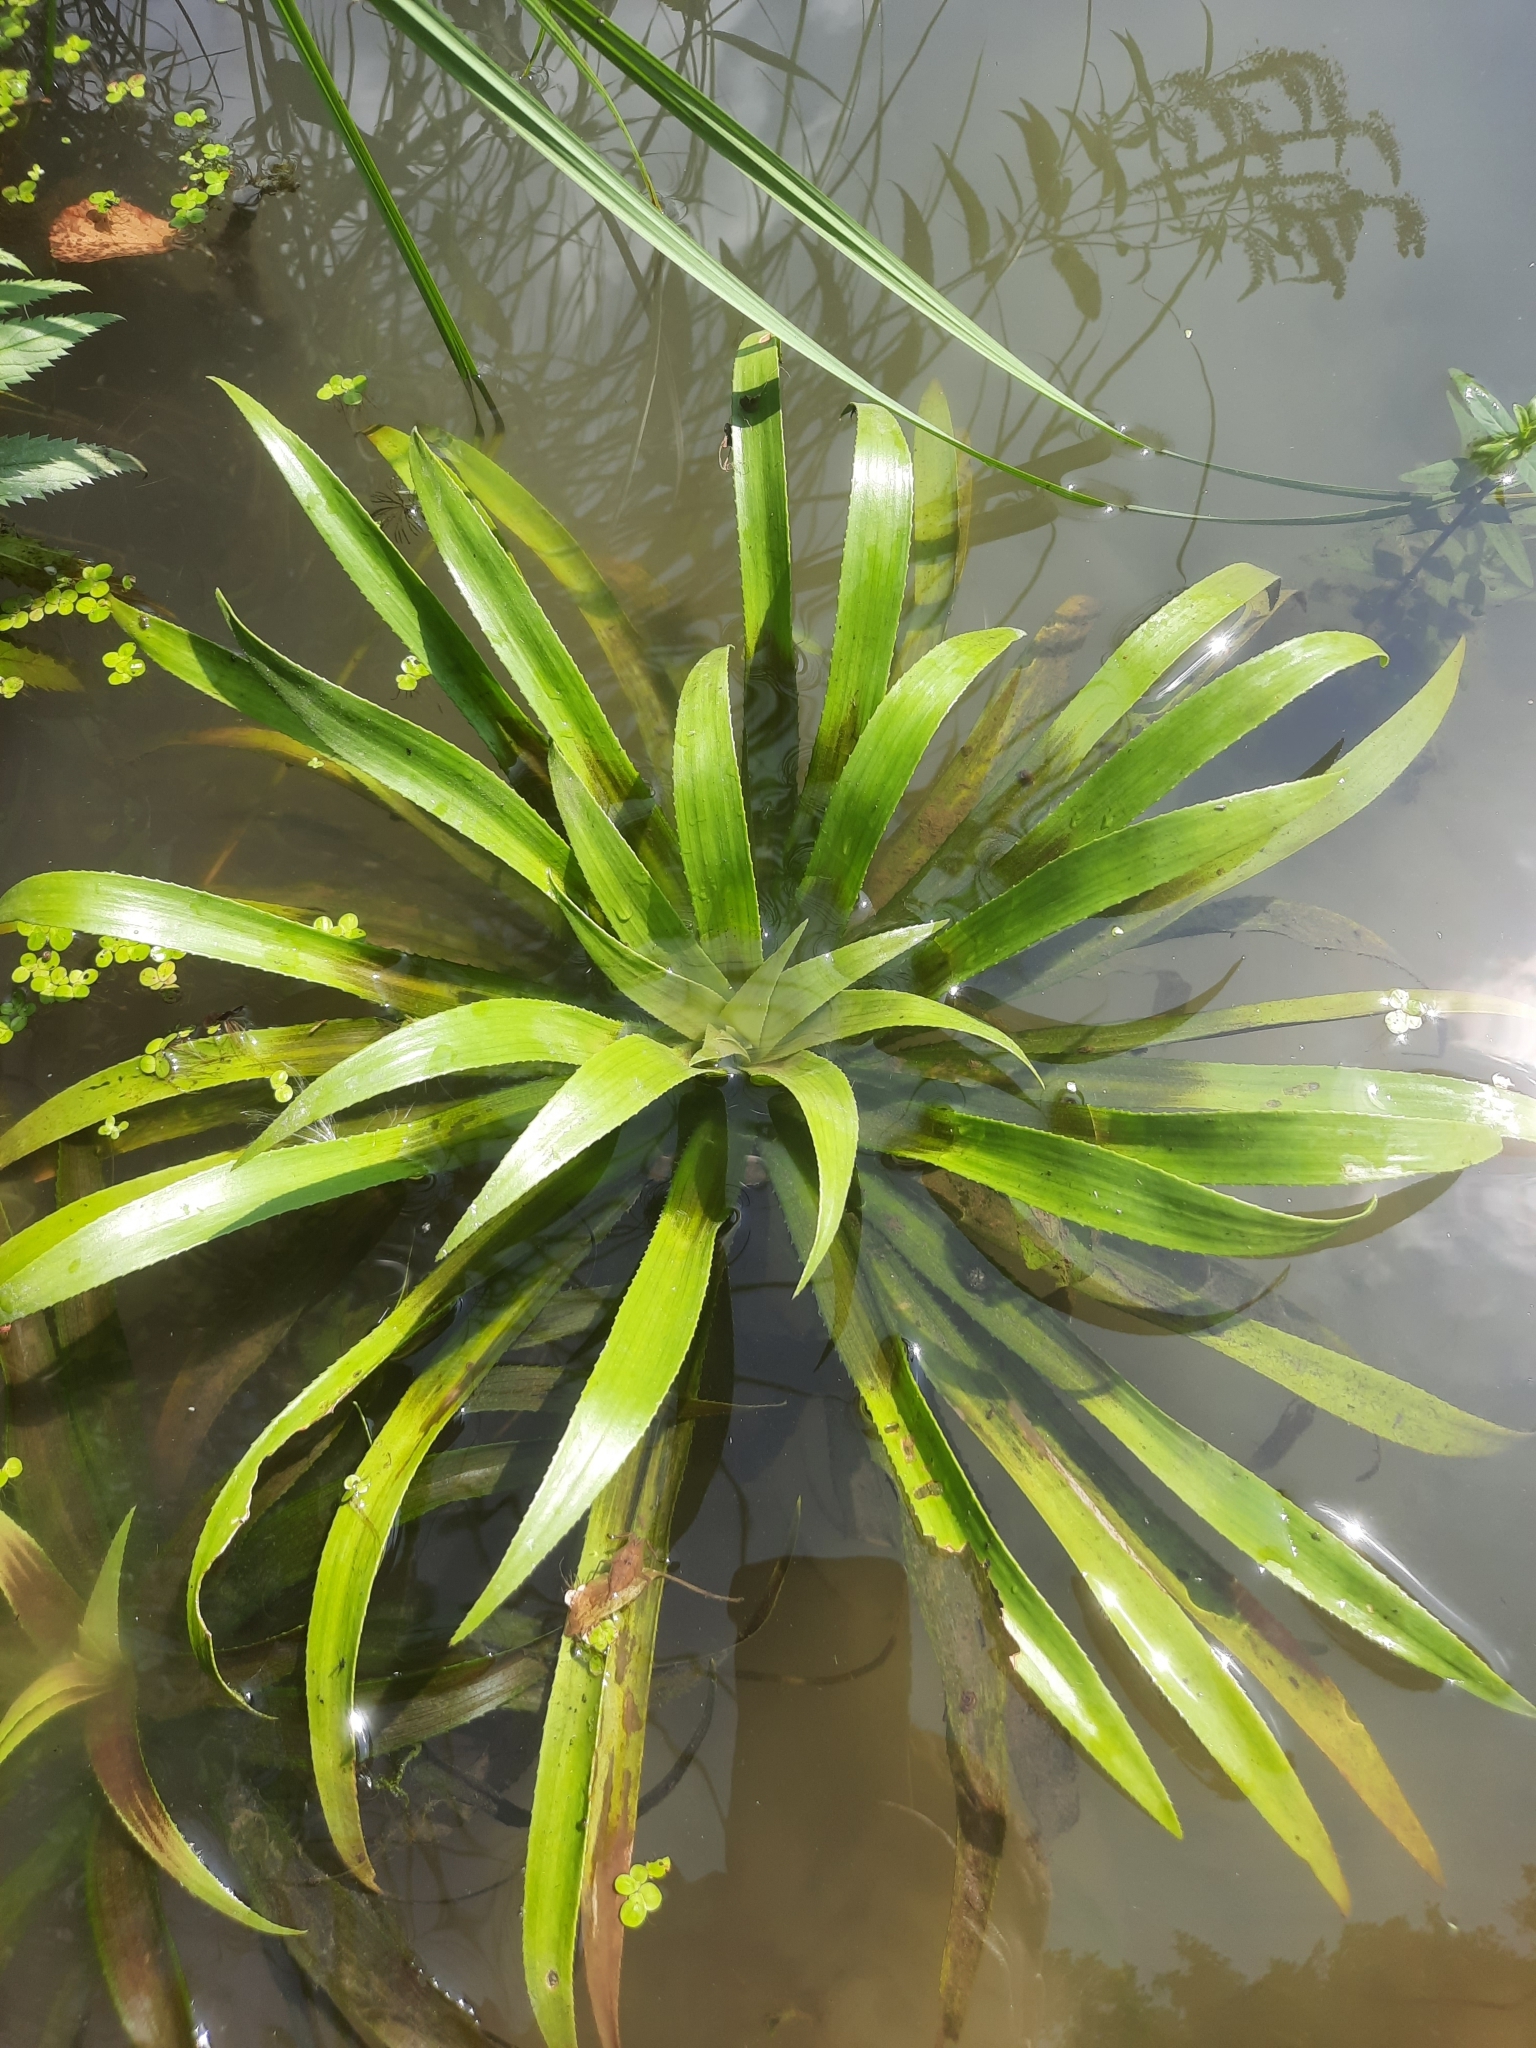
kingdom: Plantae
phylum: Tracheophyta
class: Liliopsida
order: Alismatales
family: Hydrocharitaceae
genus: Stratiotes
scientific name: Stratiotes aloides
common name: Water-soldier
